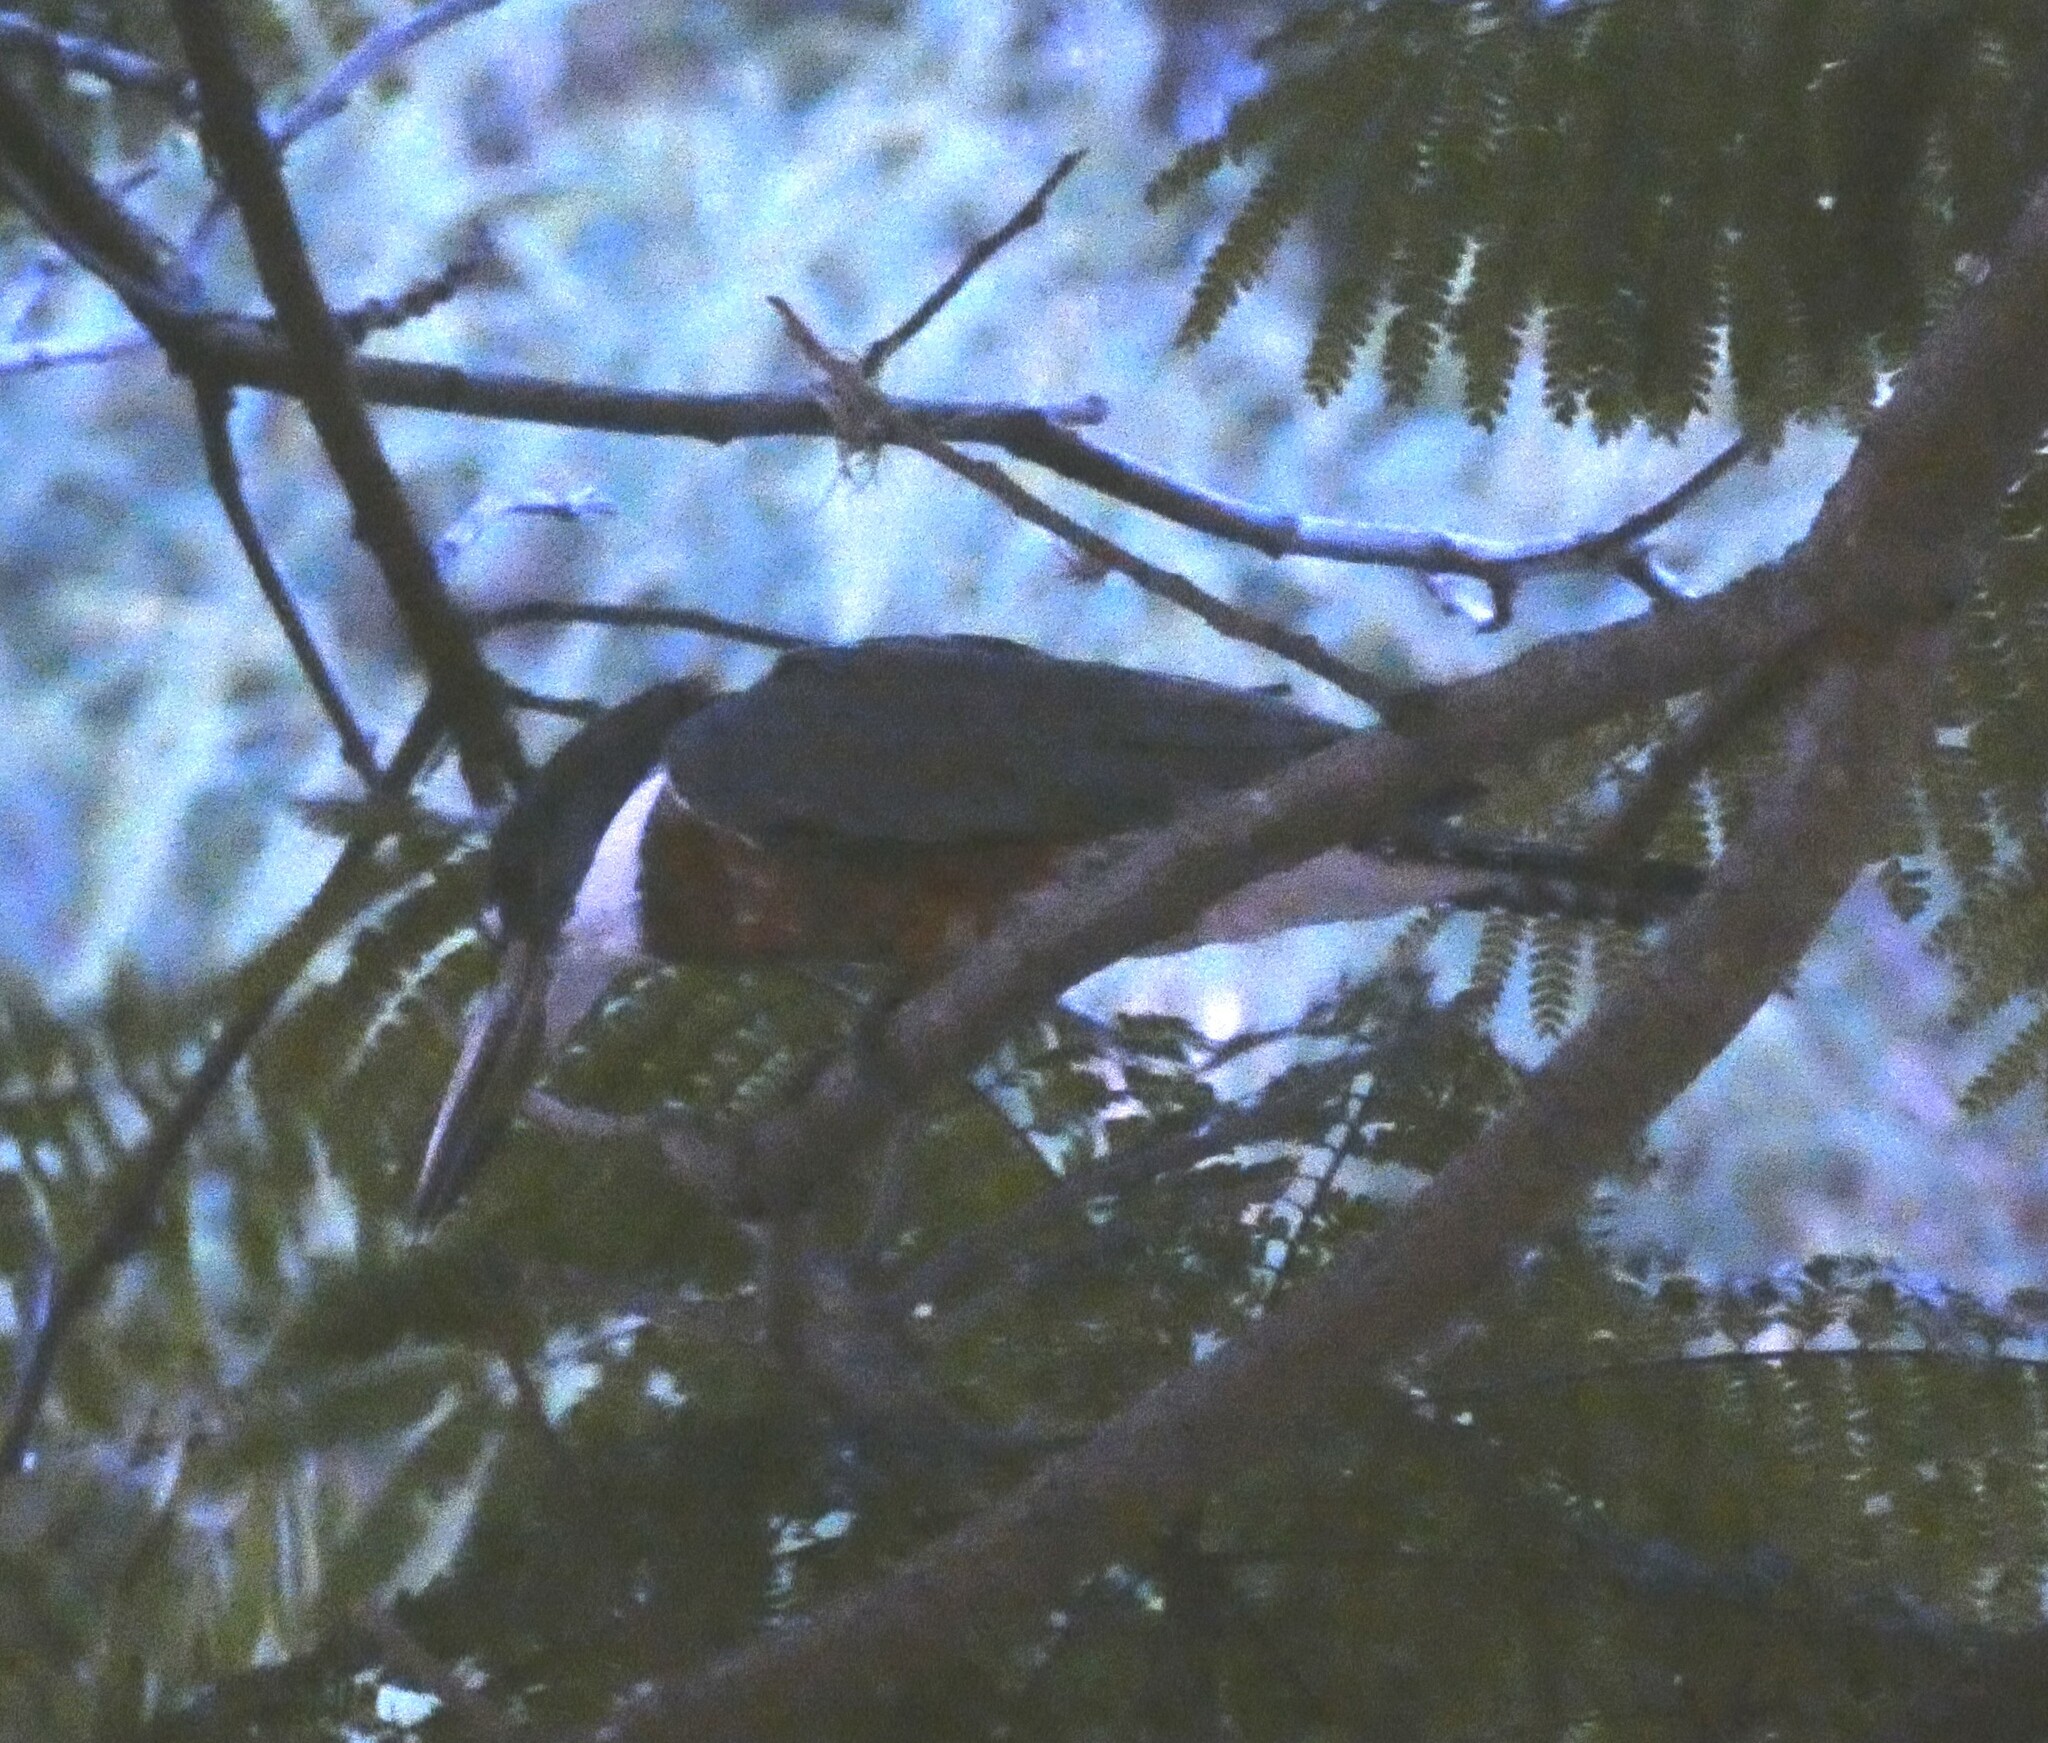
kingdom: Animalia
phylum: Chordata
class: Aves
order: Coraciiformes
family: Alcedinidae
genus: Megaceryle
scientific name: Megaceryle torquata
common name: Ringed kingfisher
